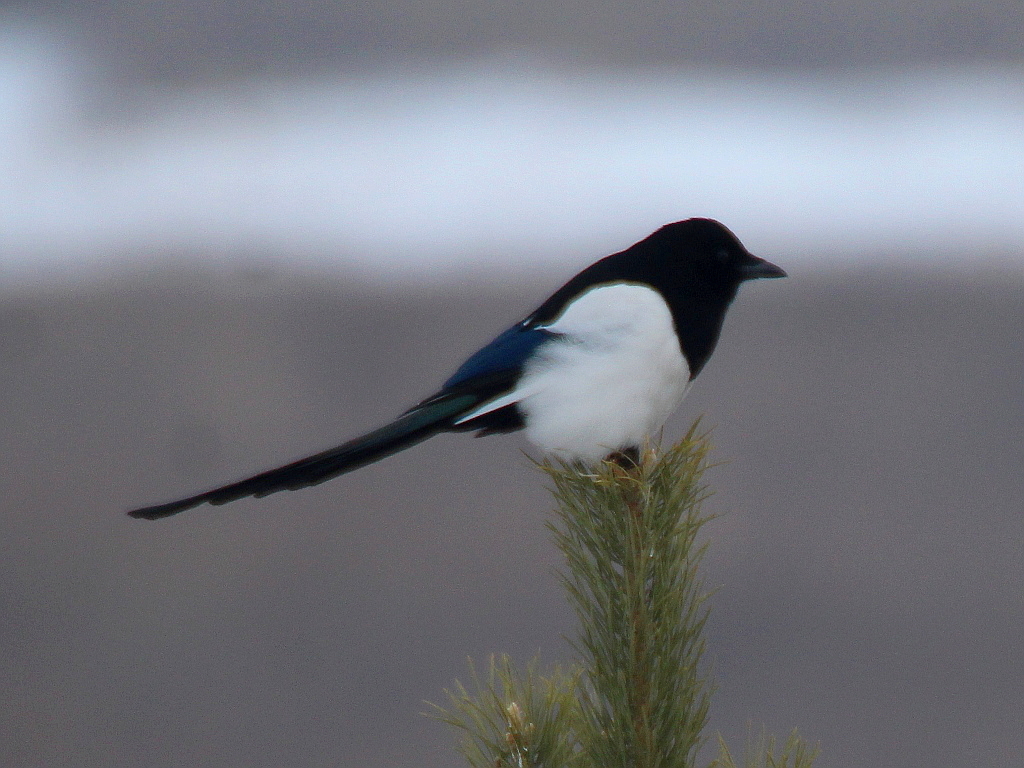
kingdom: Animalia
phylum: Chordata
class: Aves
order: Passeriformes
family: Corvidae
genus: Pica
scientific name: Pica pica
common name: Eurasian magpie
